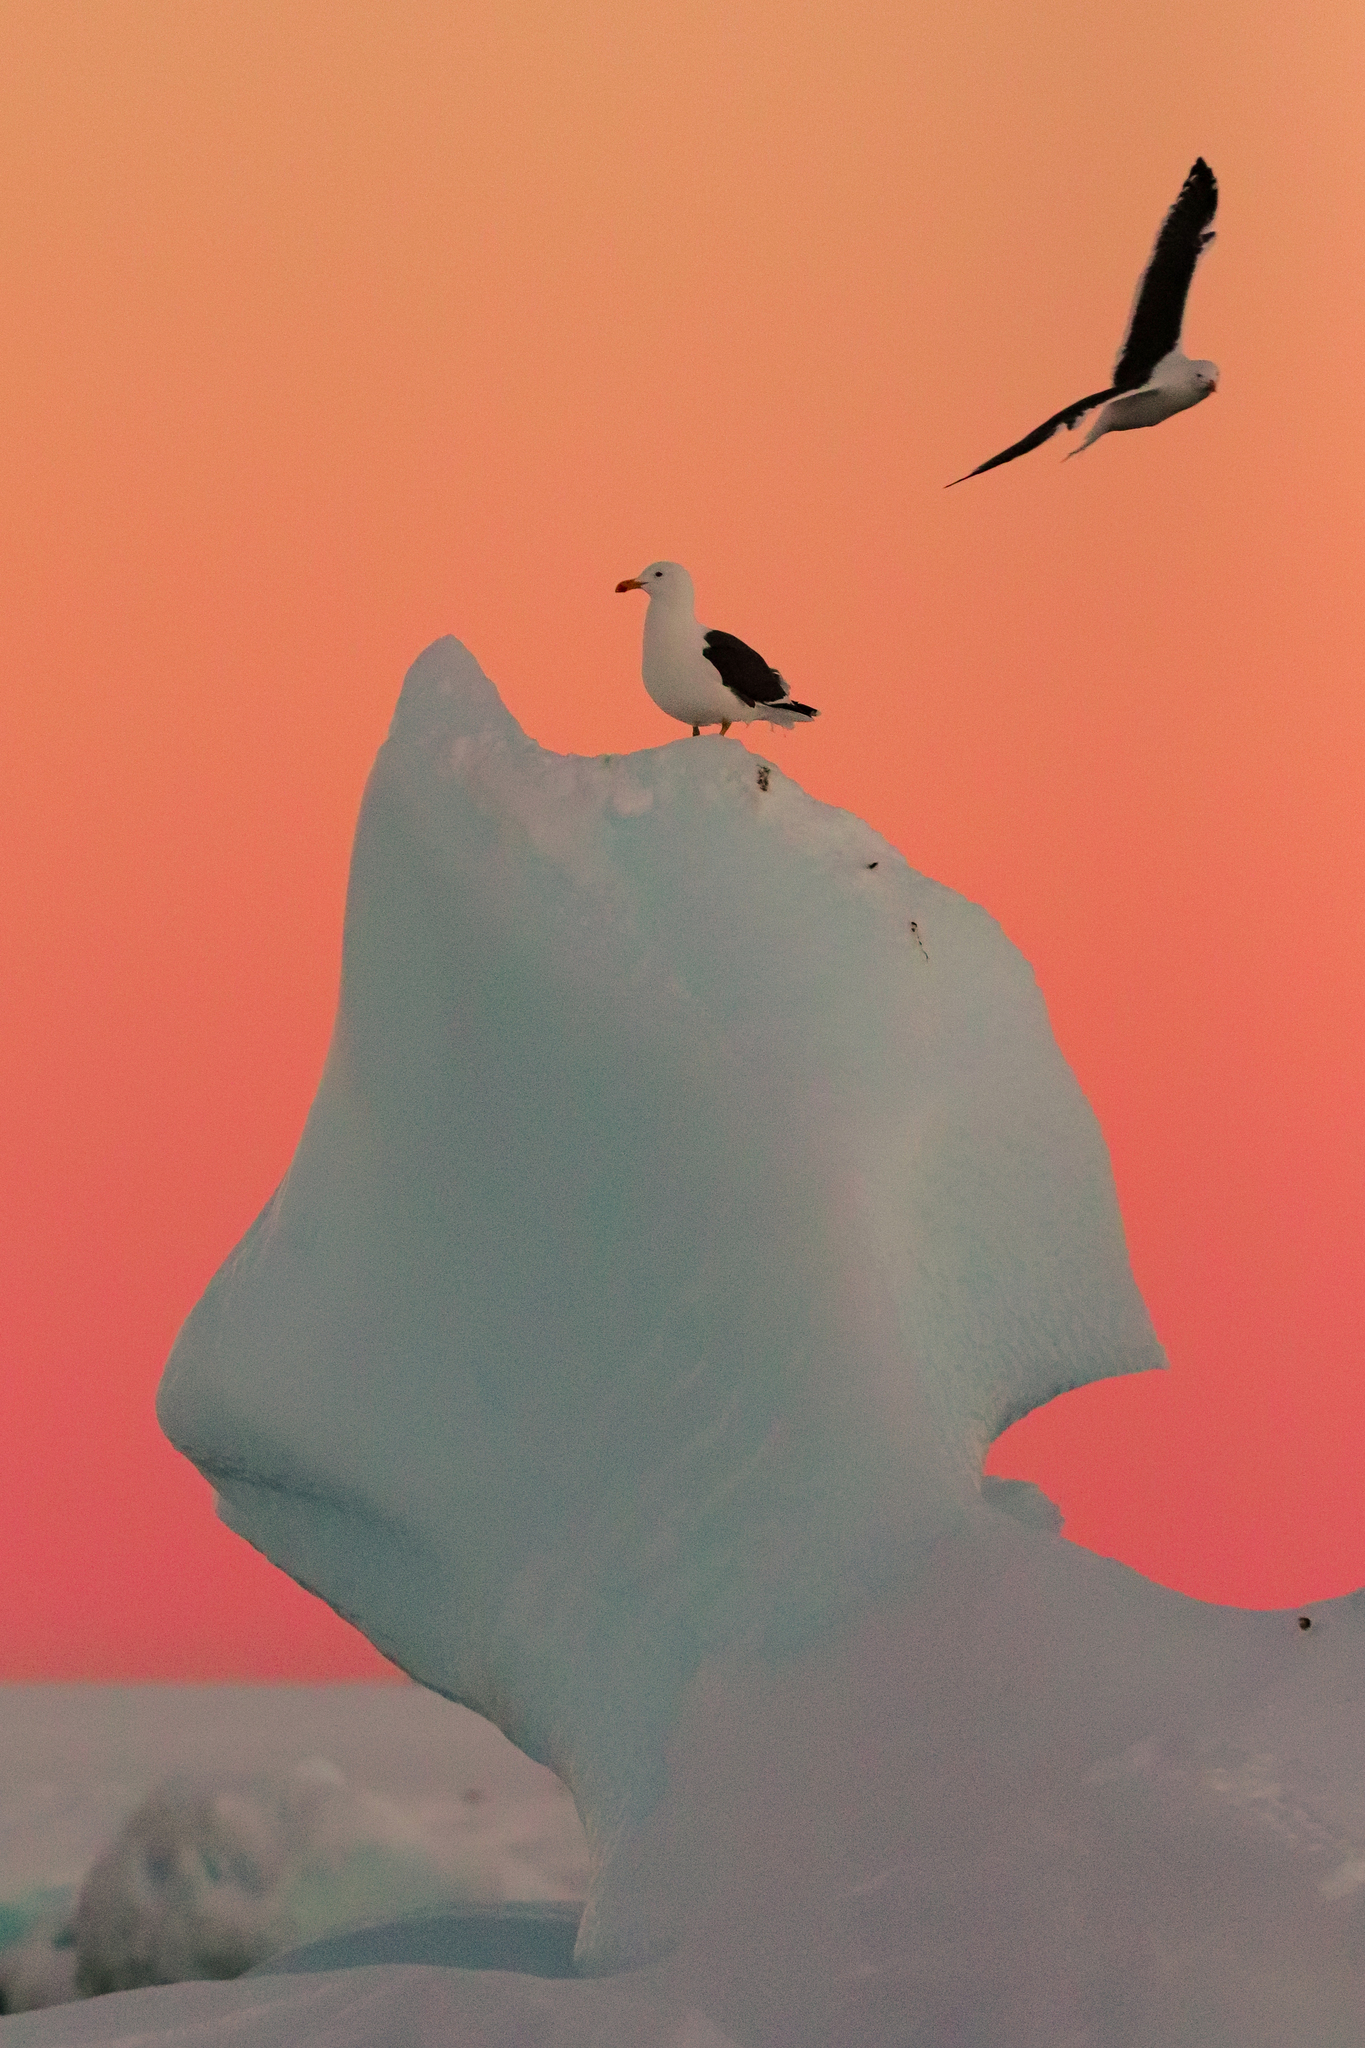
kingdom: Animalia
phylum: Chordata
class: Aves
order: Charadriiformes
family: Laridae
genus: Larus
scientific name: Larus dominicanus
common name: Kelp gull
